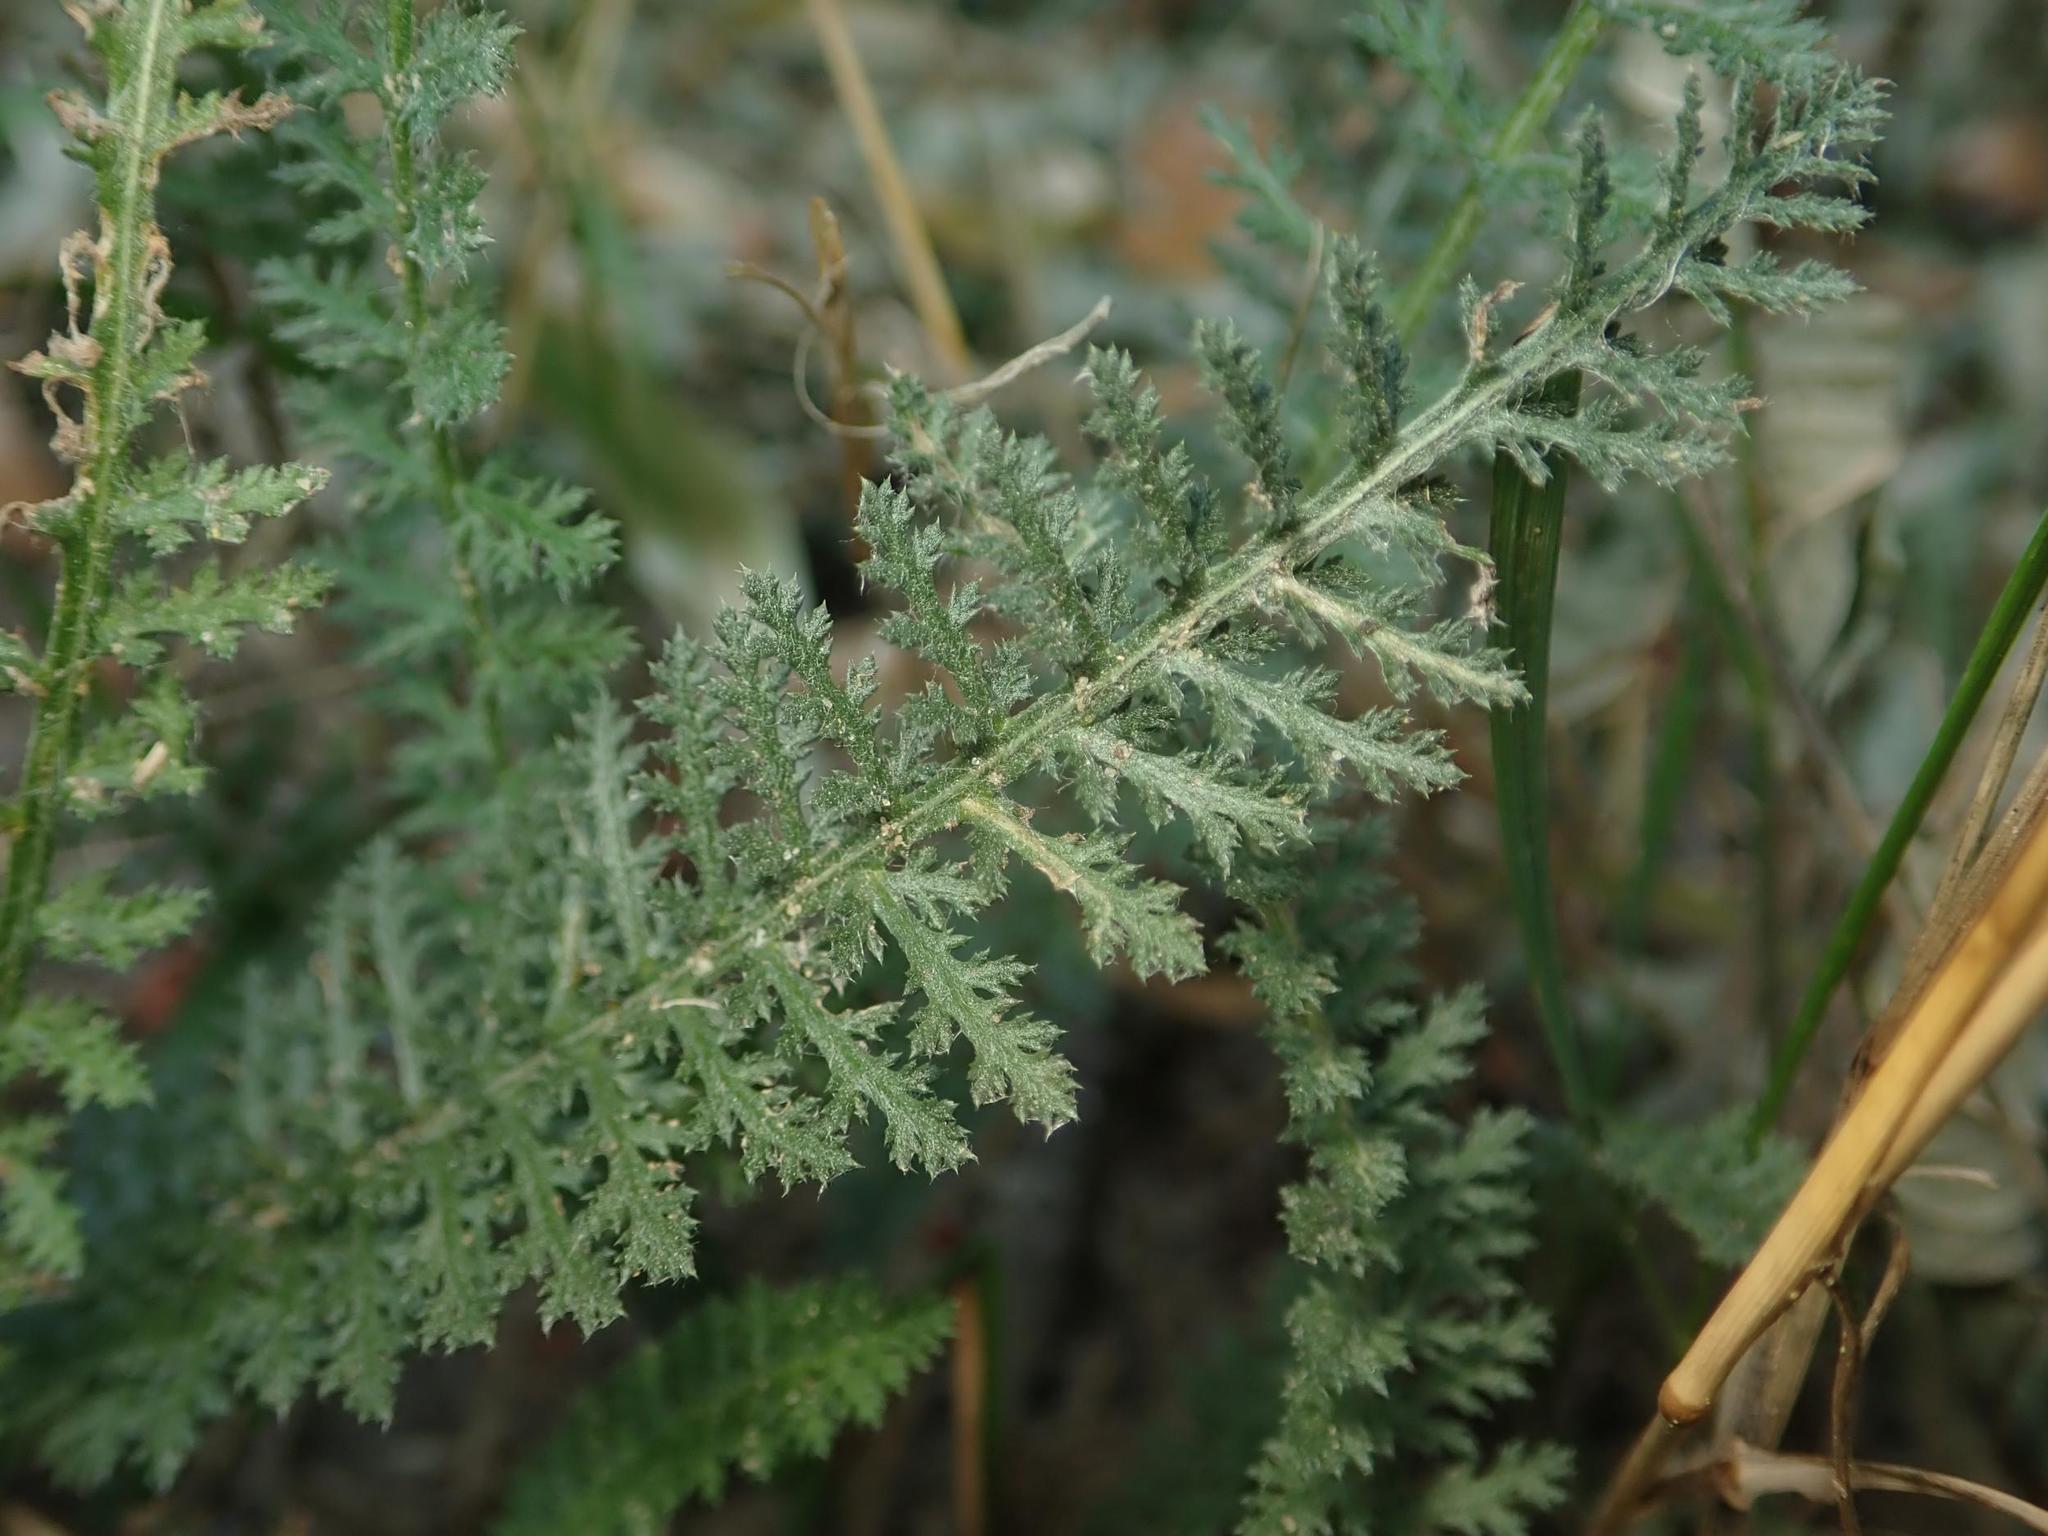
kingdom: Plantae
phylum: Tracheophyta
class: Magnoliopsida
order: Asterales
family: Asteraceae
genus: Achillea
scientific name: Achillea millefolium
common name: Yarrow
